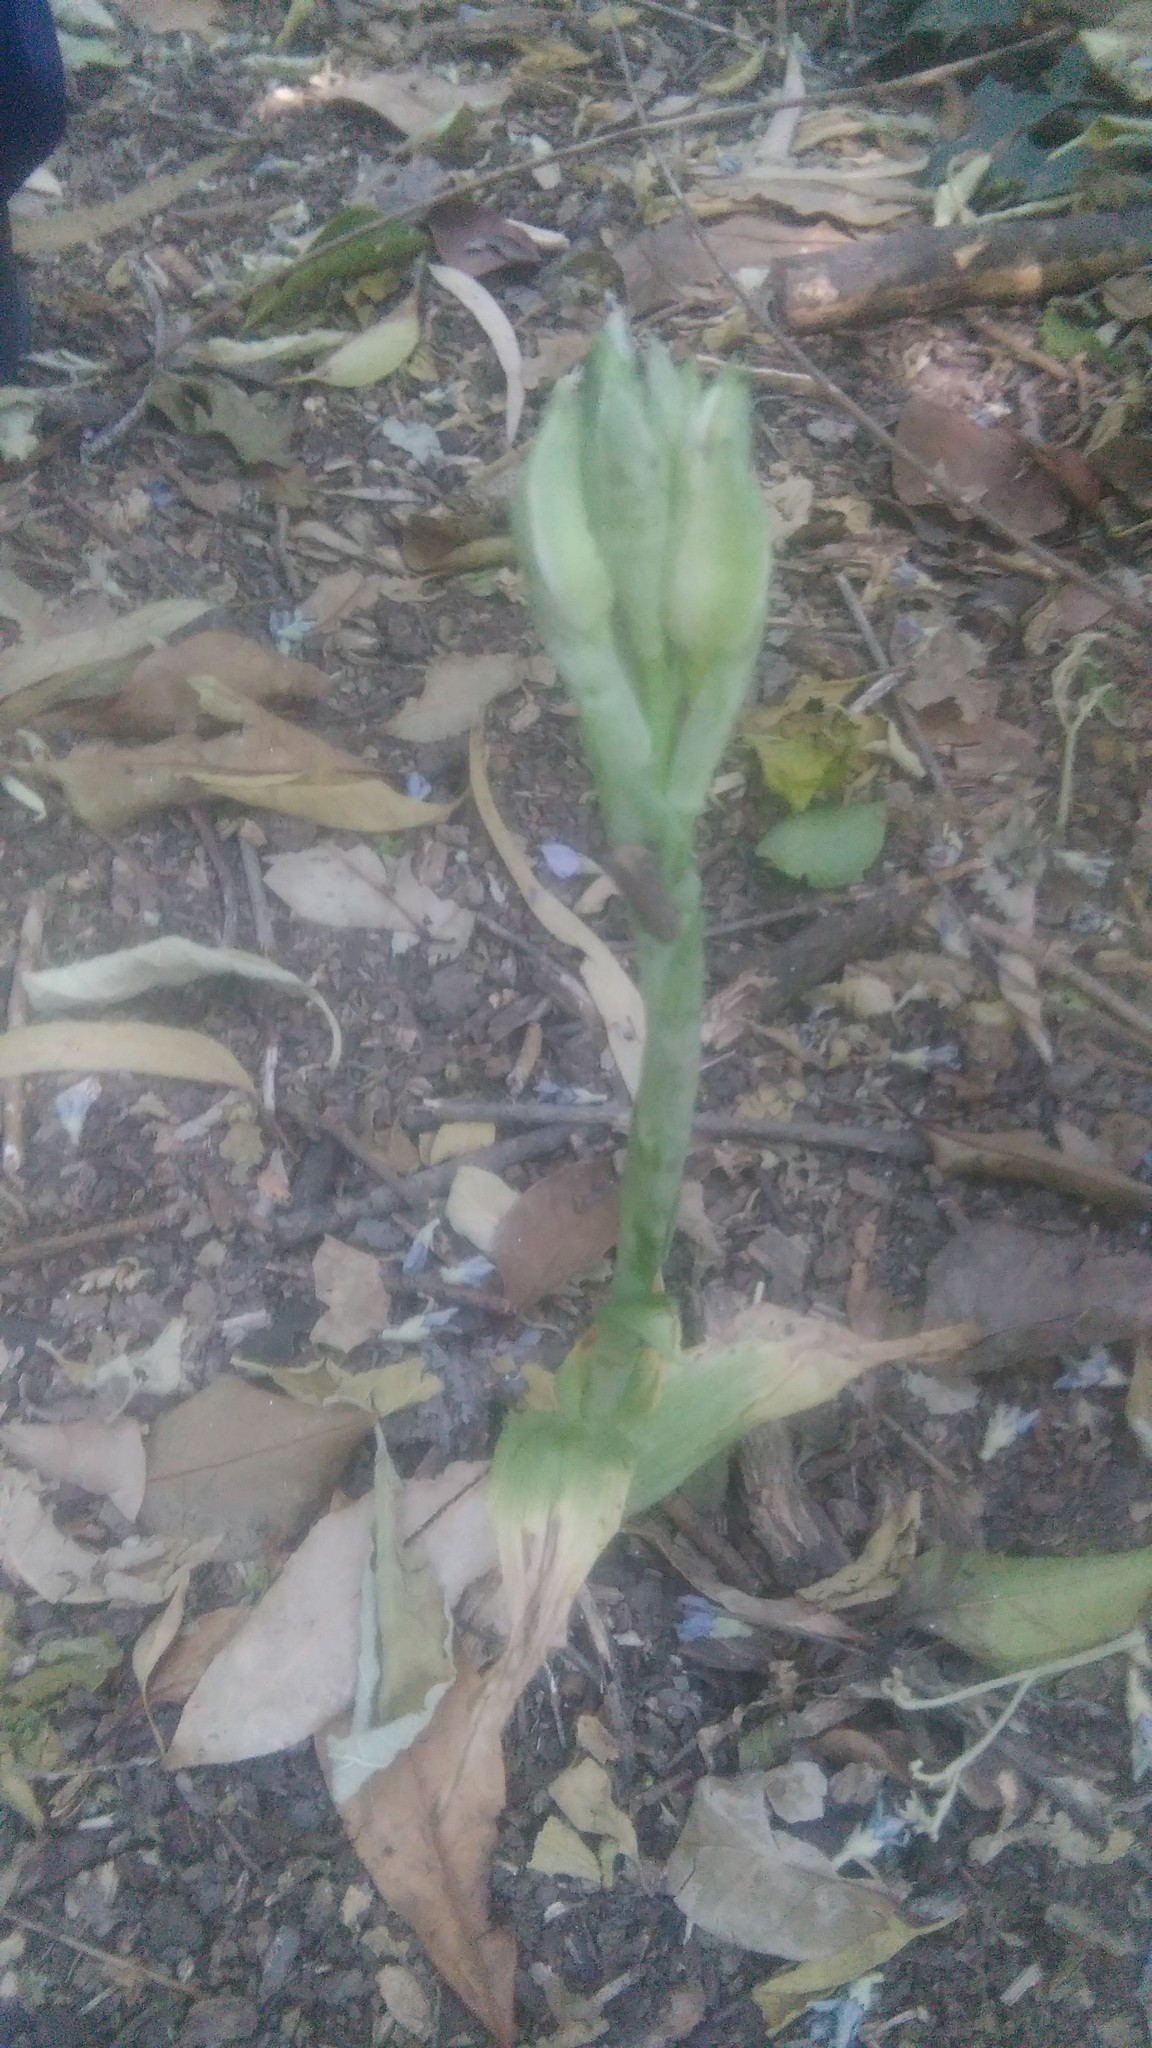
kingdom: Plantae
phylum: Tracheophyta
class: Liliopsida
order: Asparagales
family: Orchidaceae
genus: Chloraea
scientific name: Chloraea membranacea
